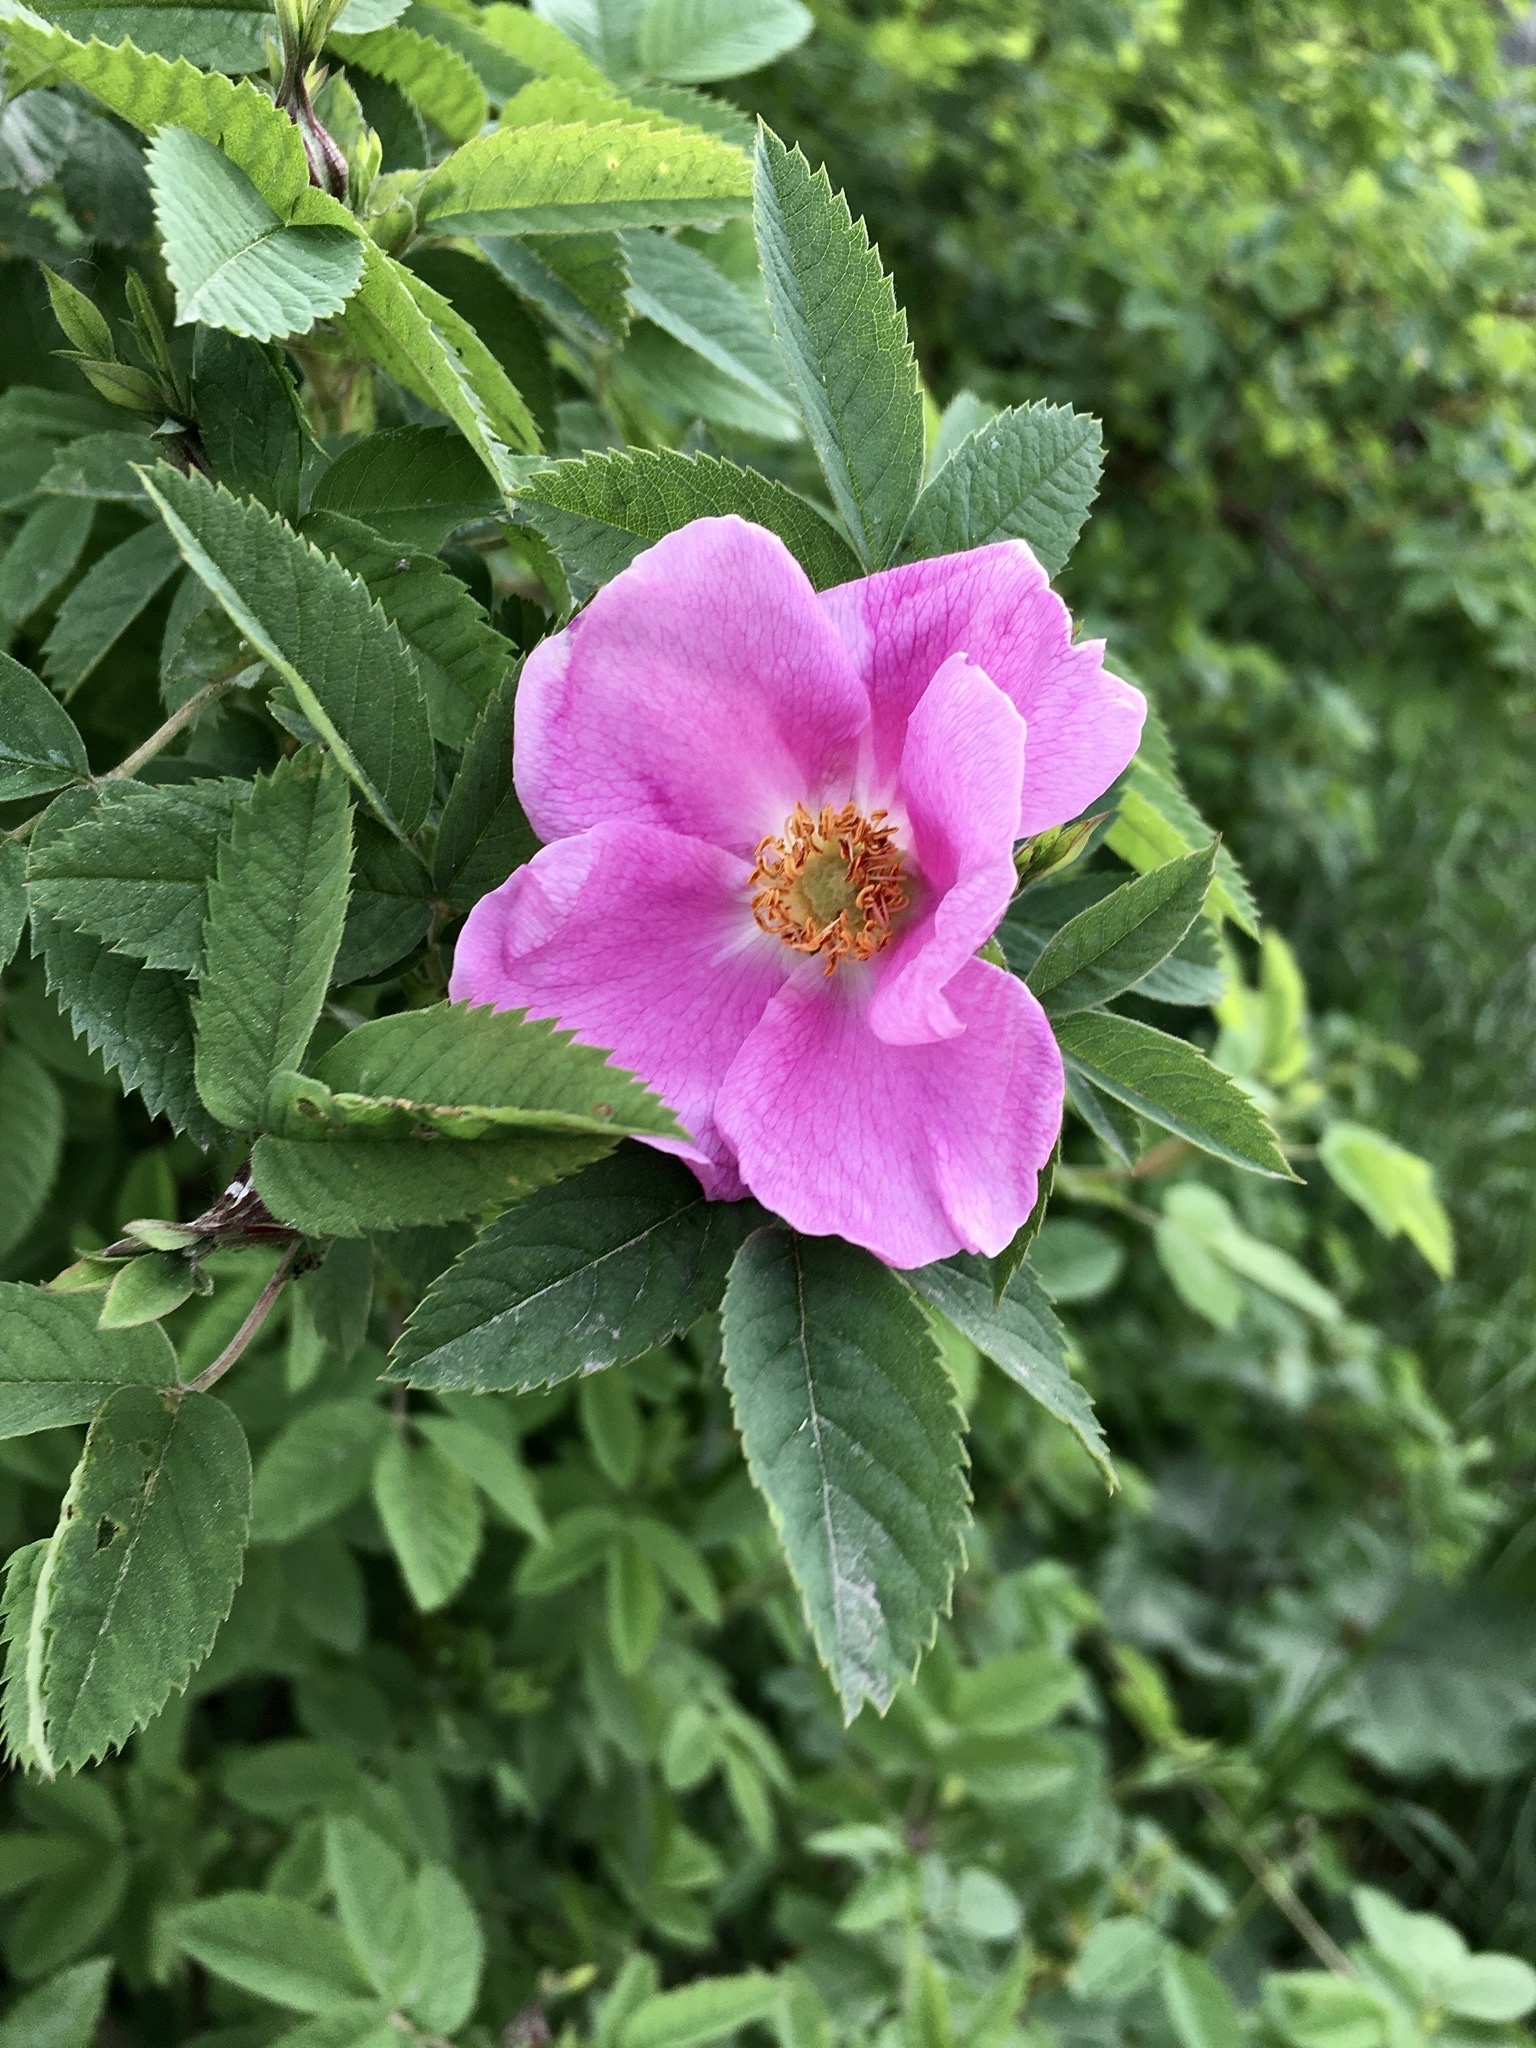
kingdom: Plantae
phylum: Tracheophyta
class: Magnoliopsida
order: Rosales
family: Rosaceae
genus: Rosa
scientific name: Rosa majalis
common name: Cinnamon rose
